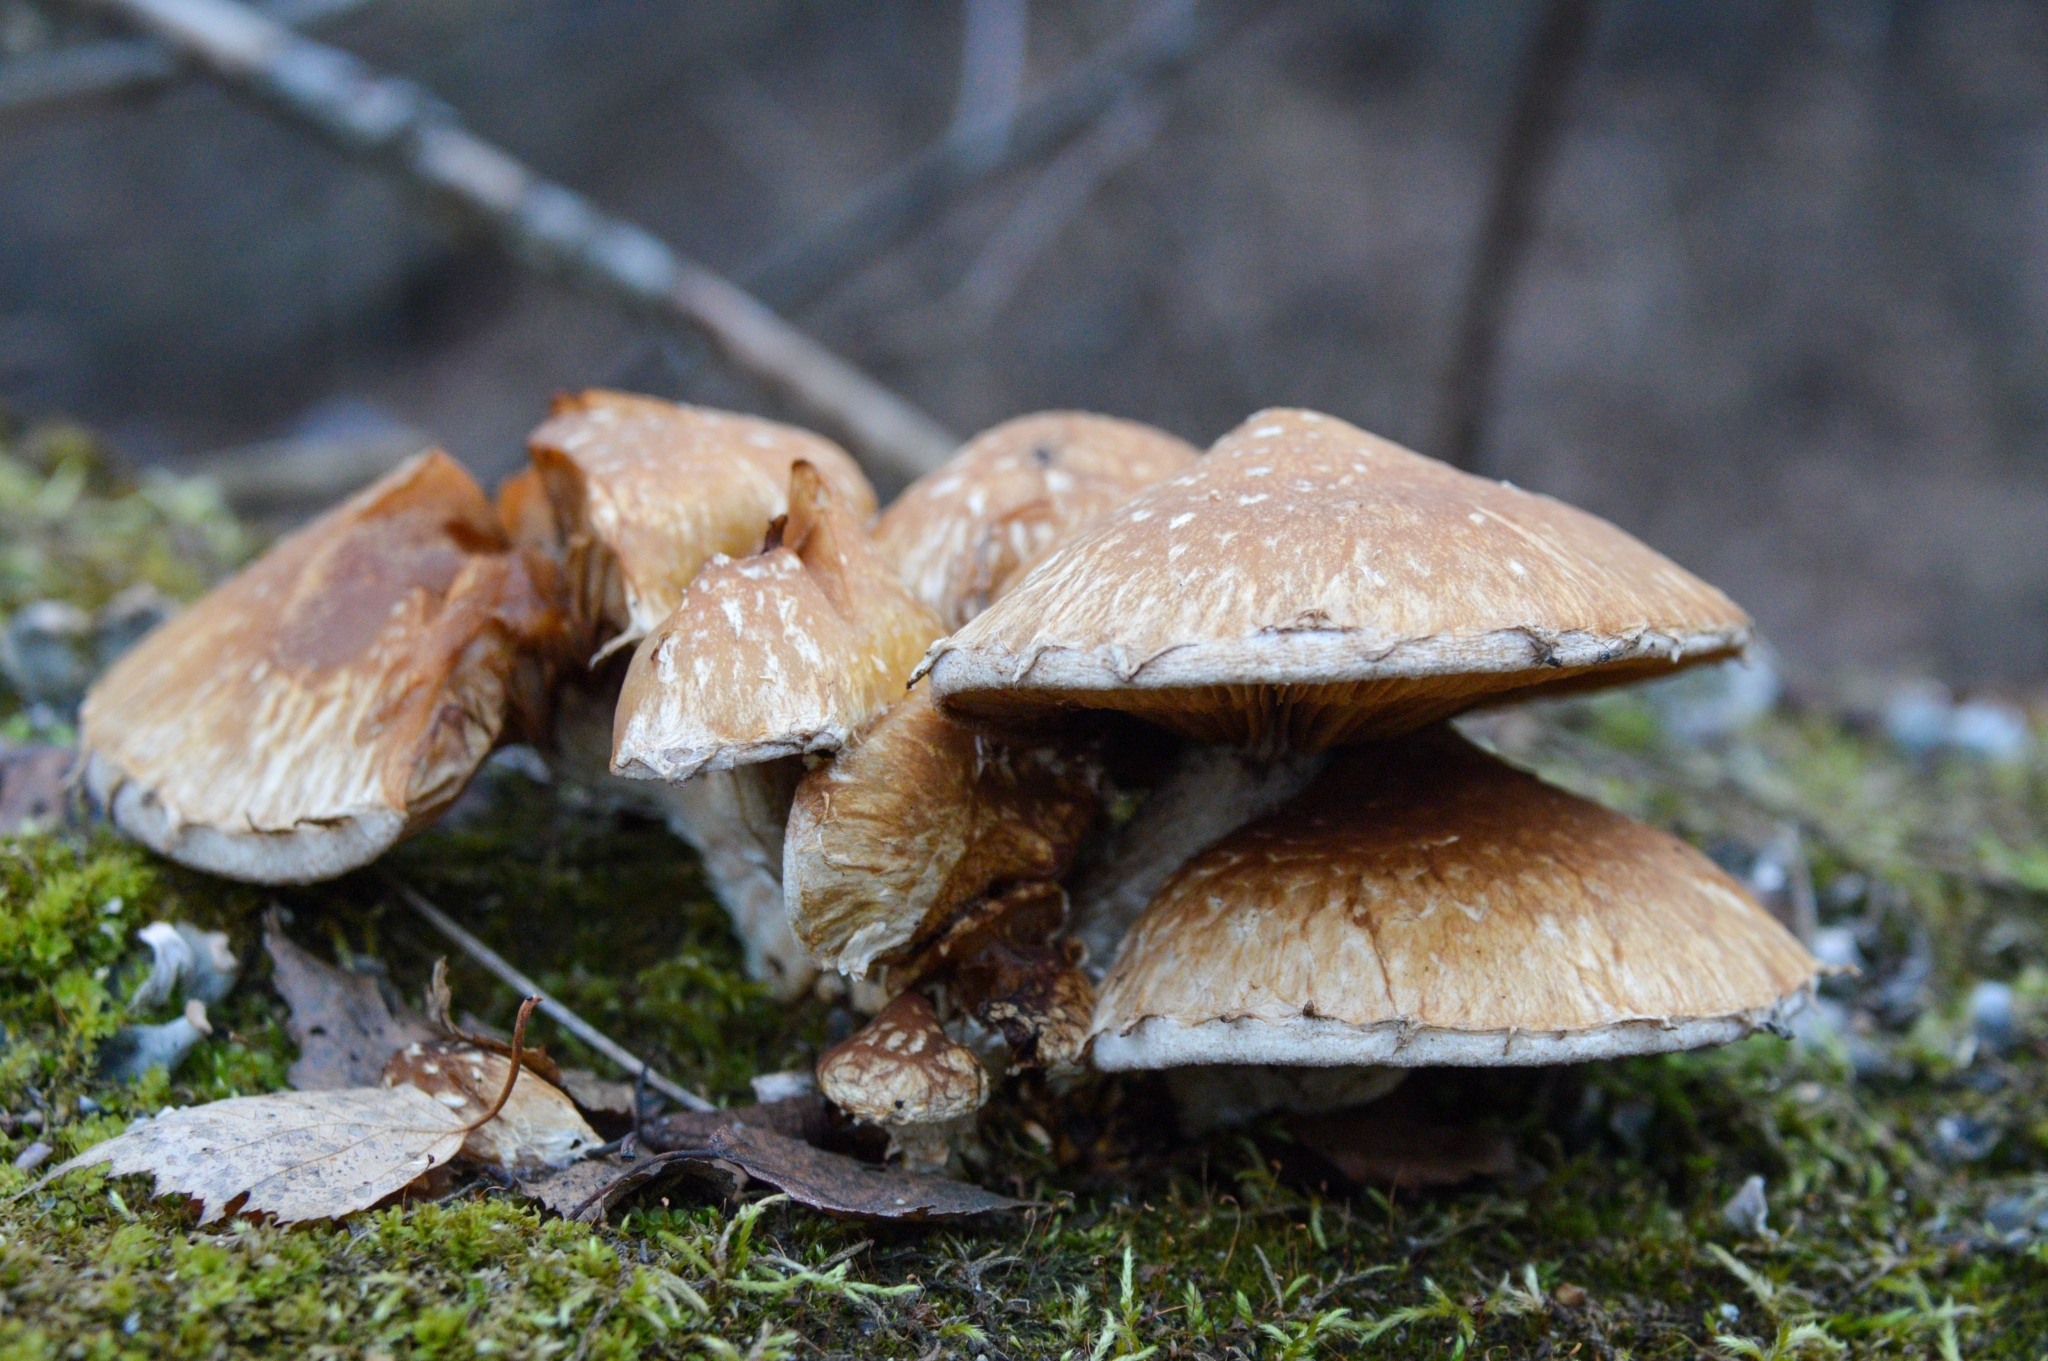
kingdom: Fungi
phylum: Basidiomycota
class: Agaricomycetes
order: Agaricales
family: Strophariaceae
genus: Pholiota
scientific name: Pholiota populnea
